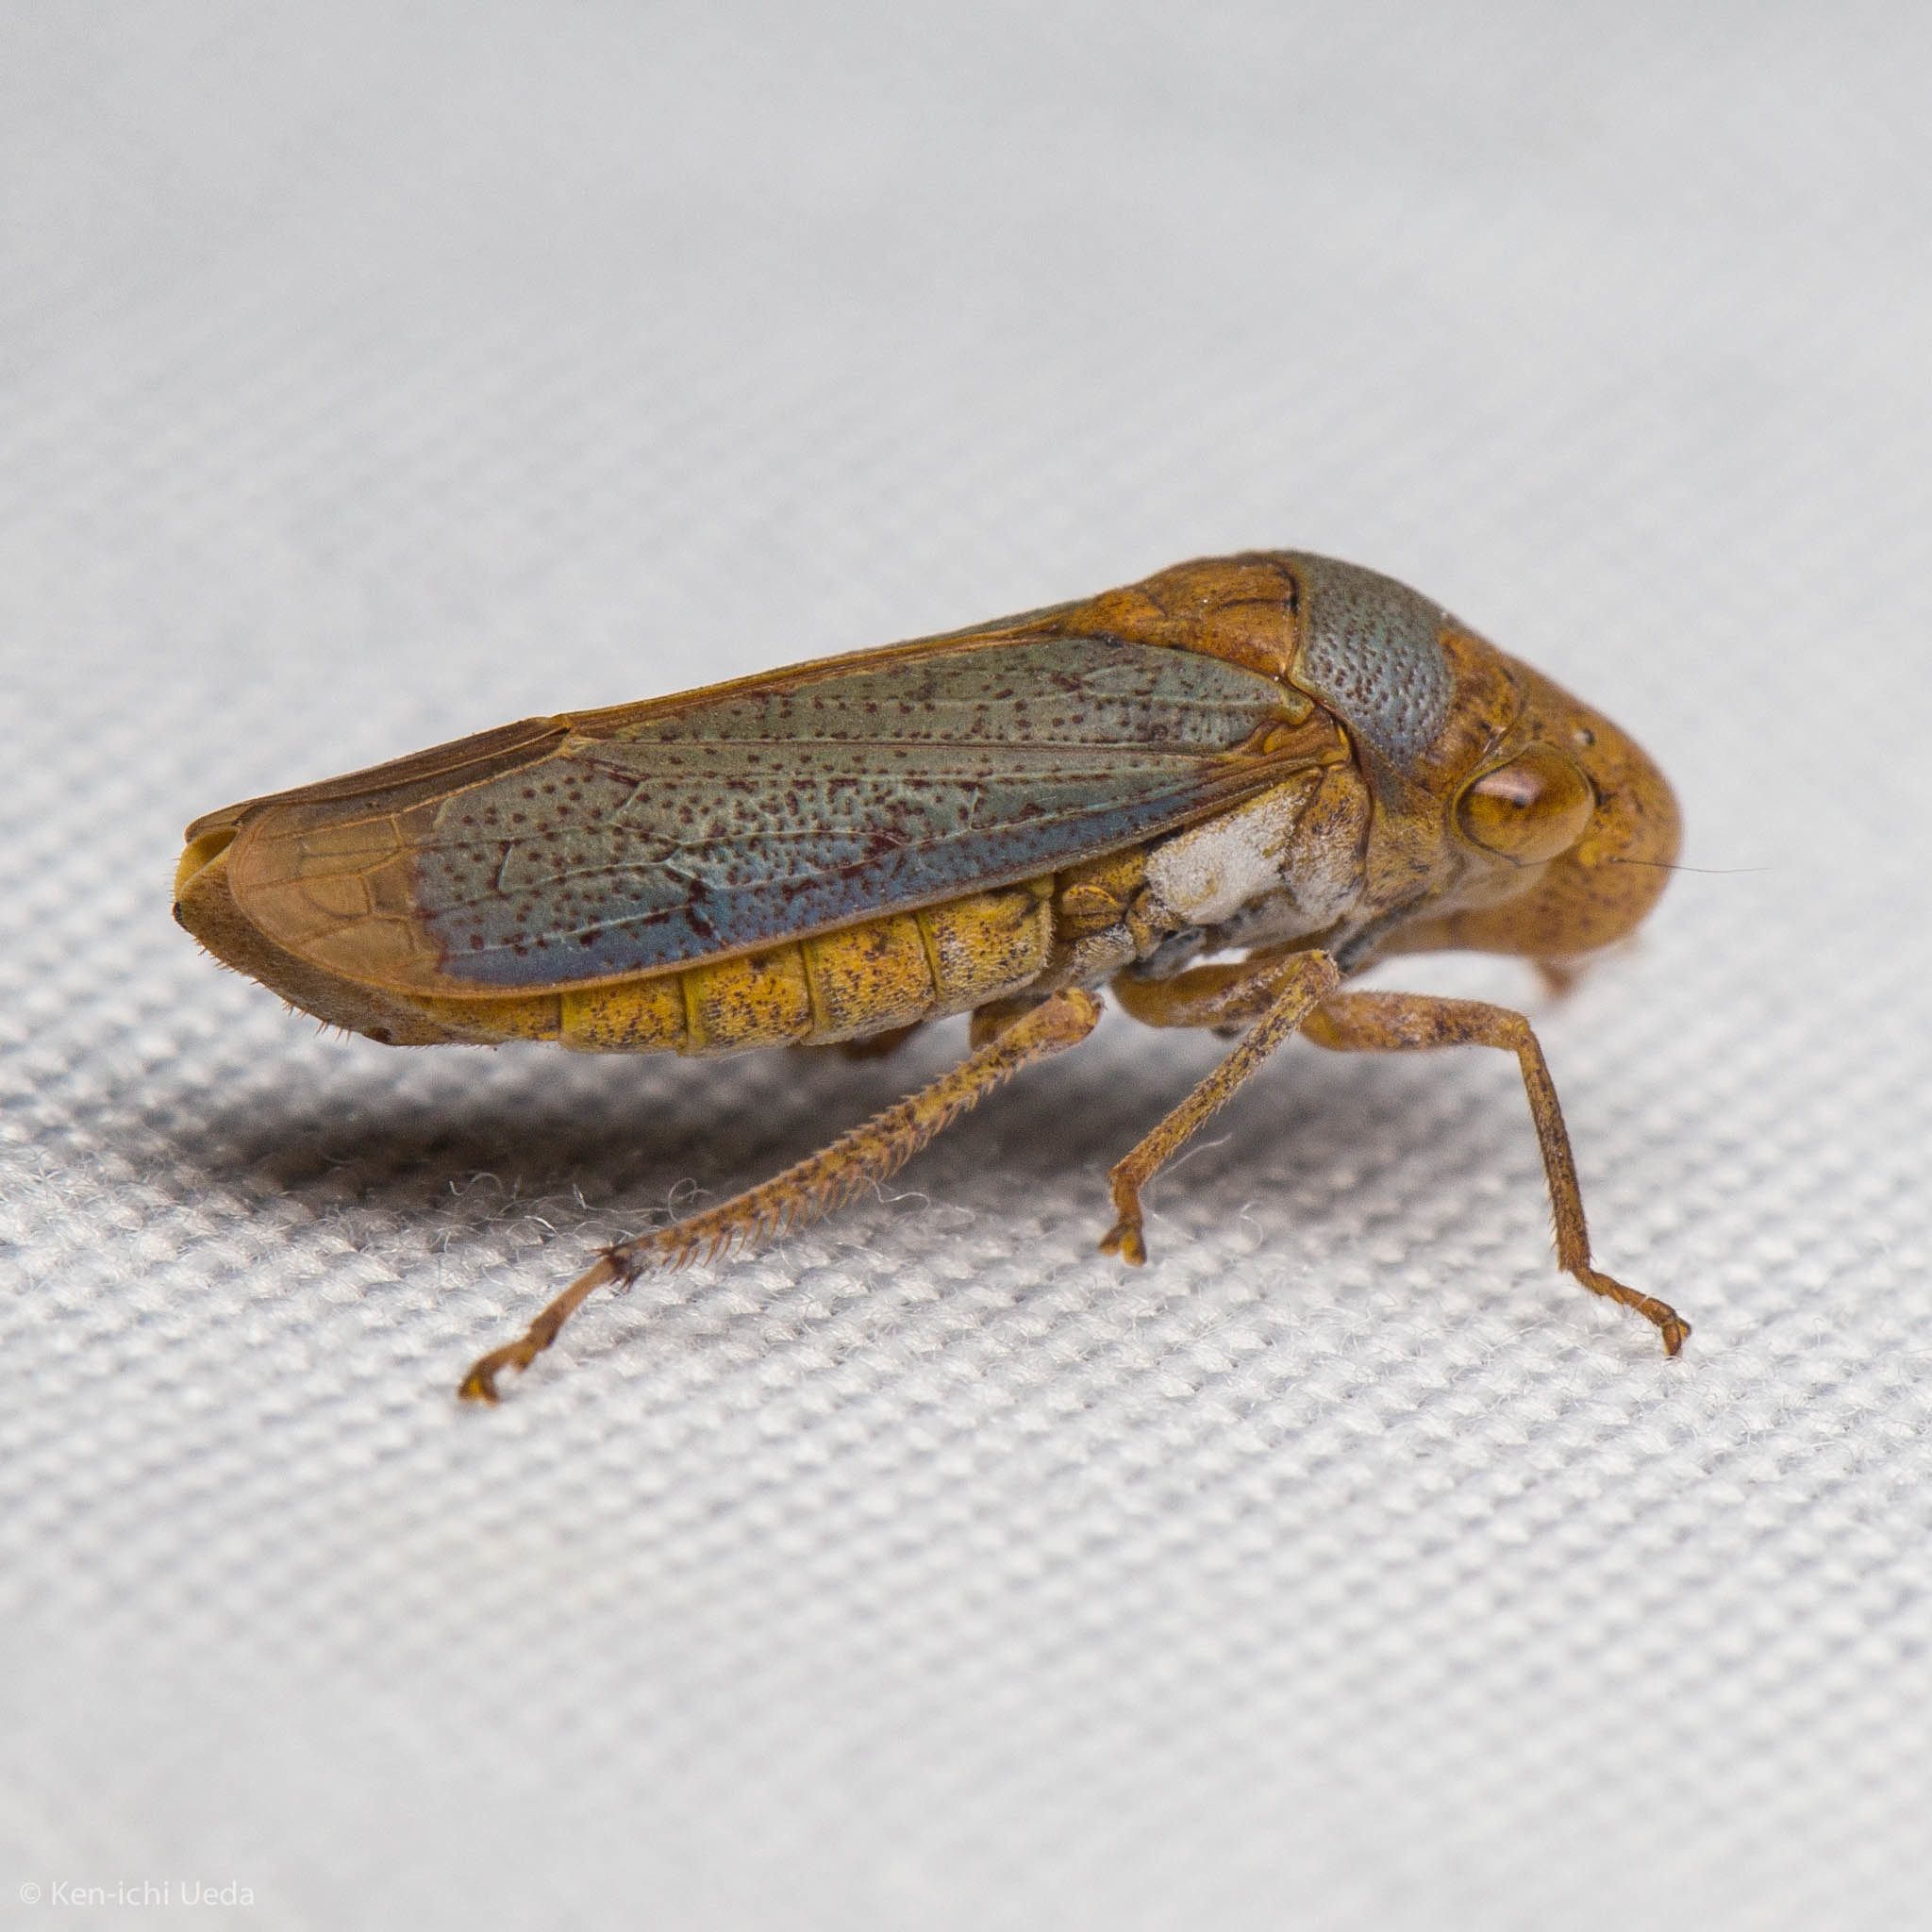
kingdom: Animalia
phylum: Arthropoda
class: Insecta
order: Hemiptera
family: Cicadellidae
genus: Oncometopia
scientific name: Oncometopia hamiltoni
